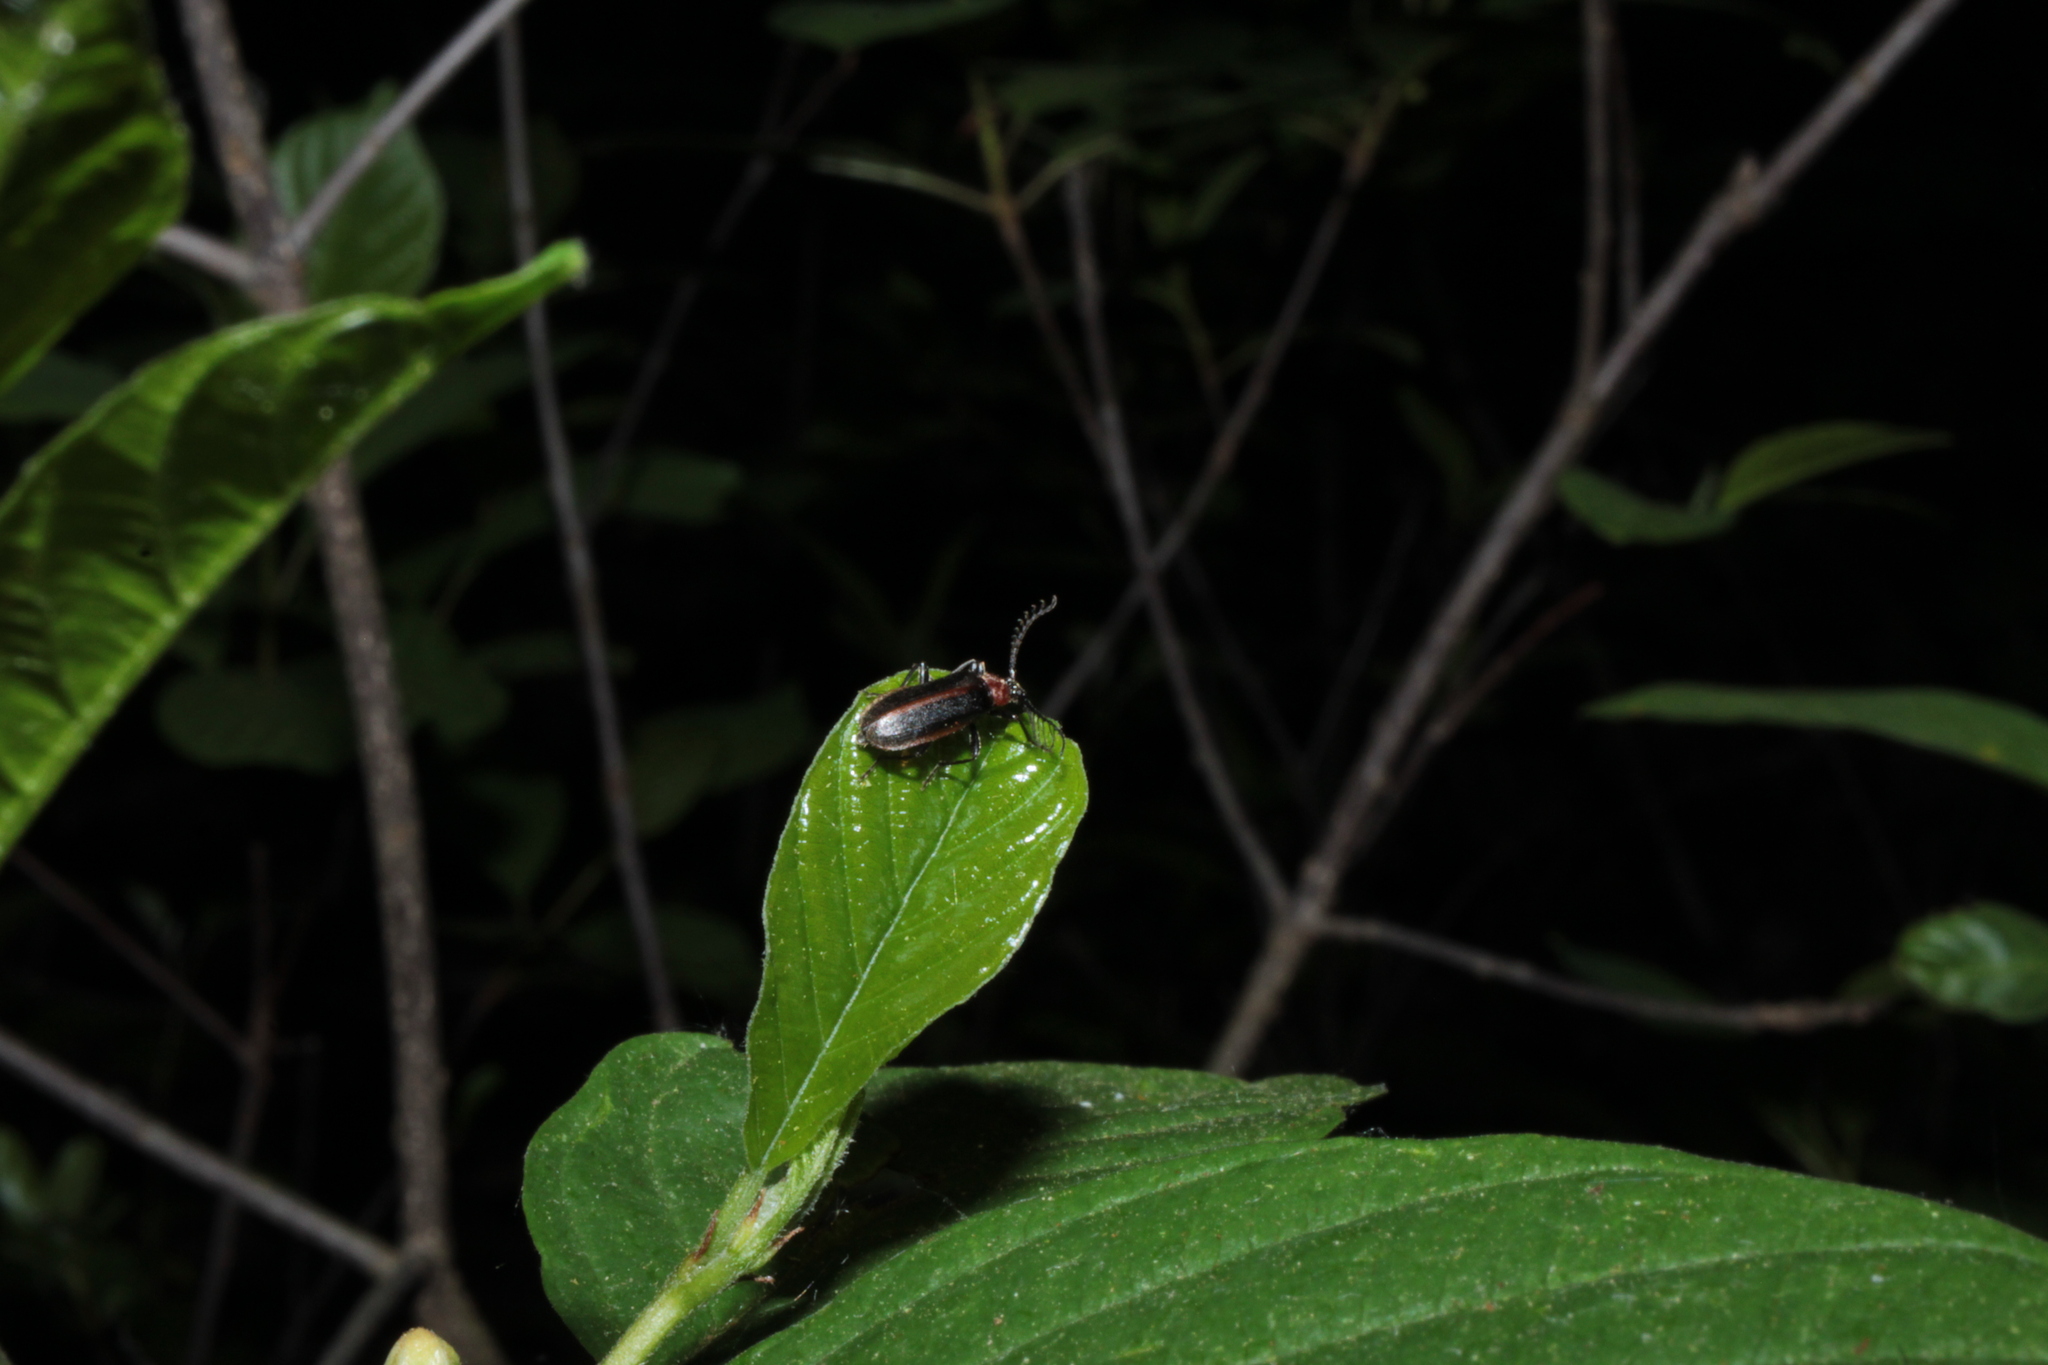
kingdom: Animalia
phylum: Arthropoda
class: Insecta
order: Coleoptera
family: Pyrochroidae
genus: Schizotus
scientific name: Schizotus cervicalis
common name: Flaming-pillow beetle
